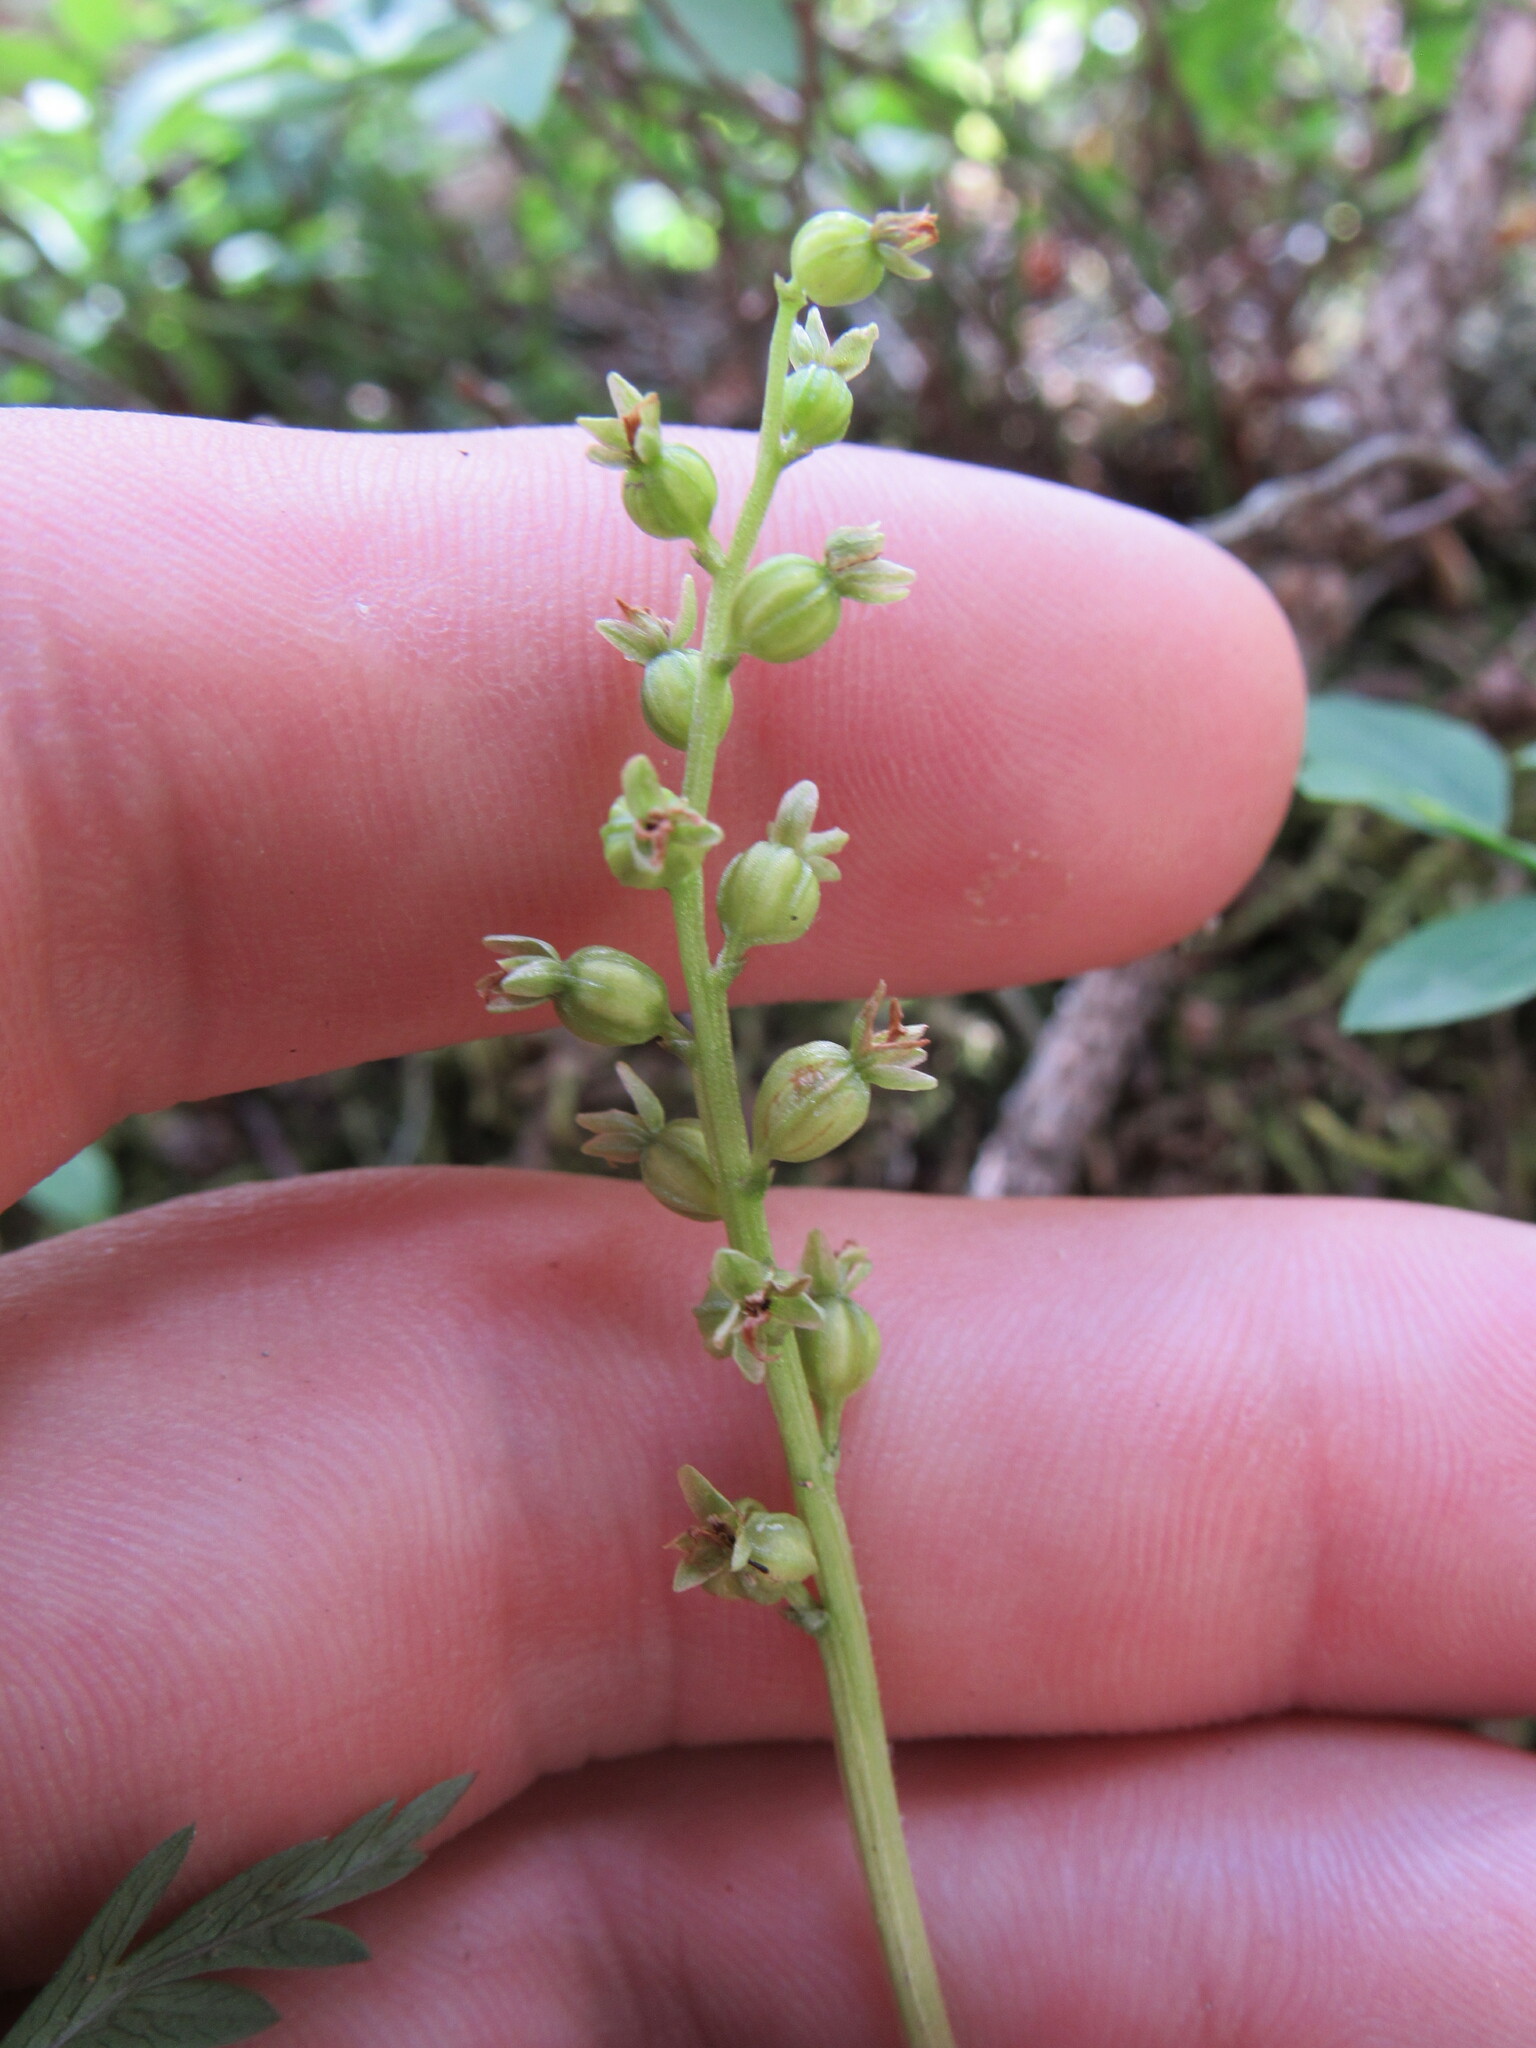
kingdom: Plantae
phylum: Tracheophyta
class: Liliopsida
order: Asparagales
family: Orchidaceae
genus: Neottia
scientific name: Neottia cordata
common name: Lesser twayblade
